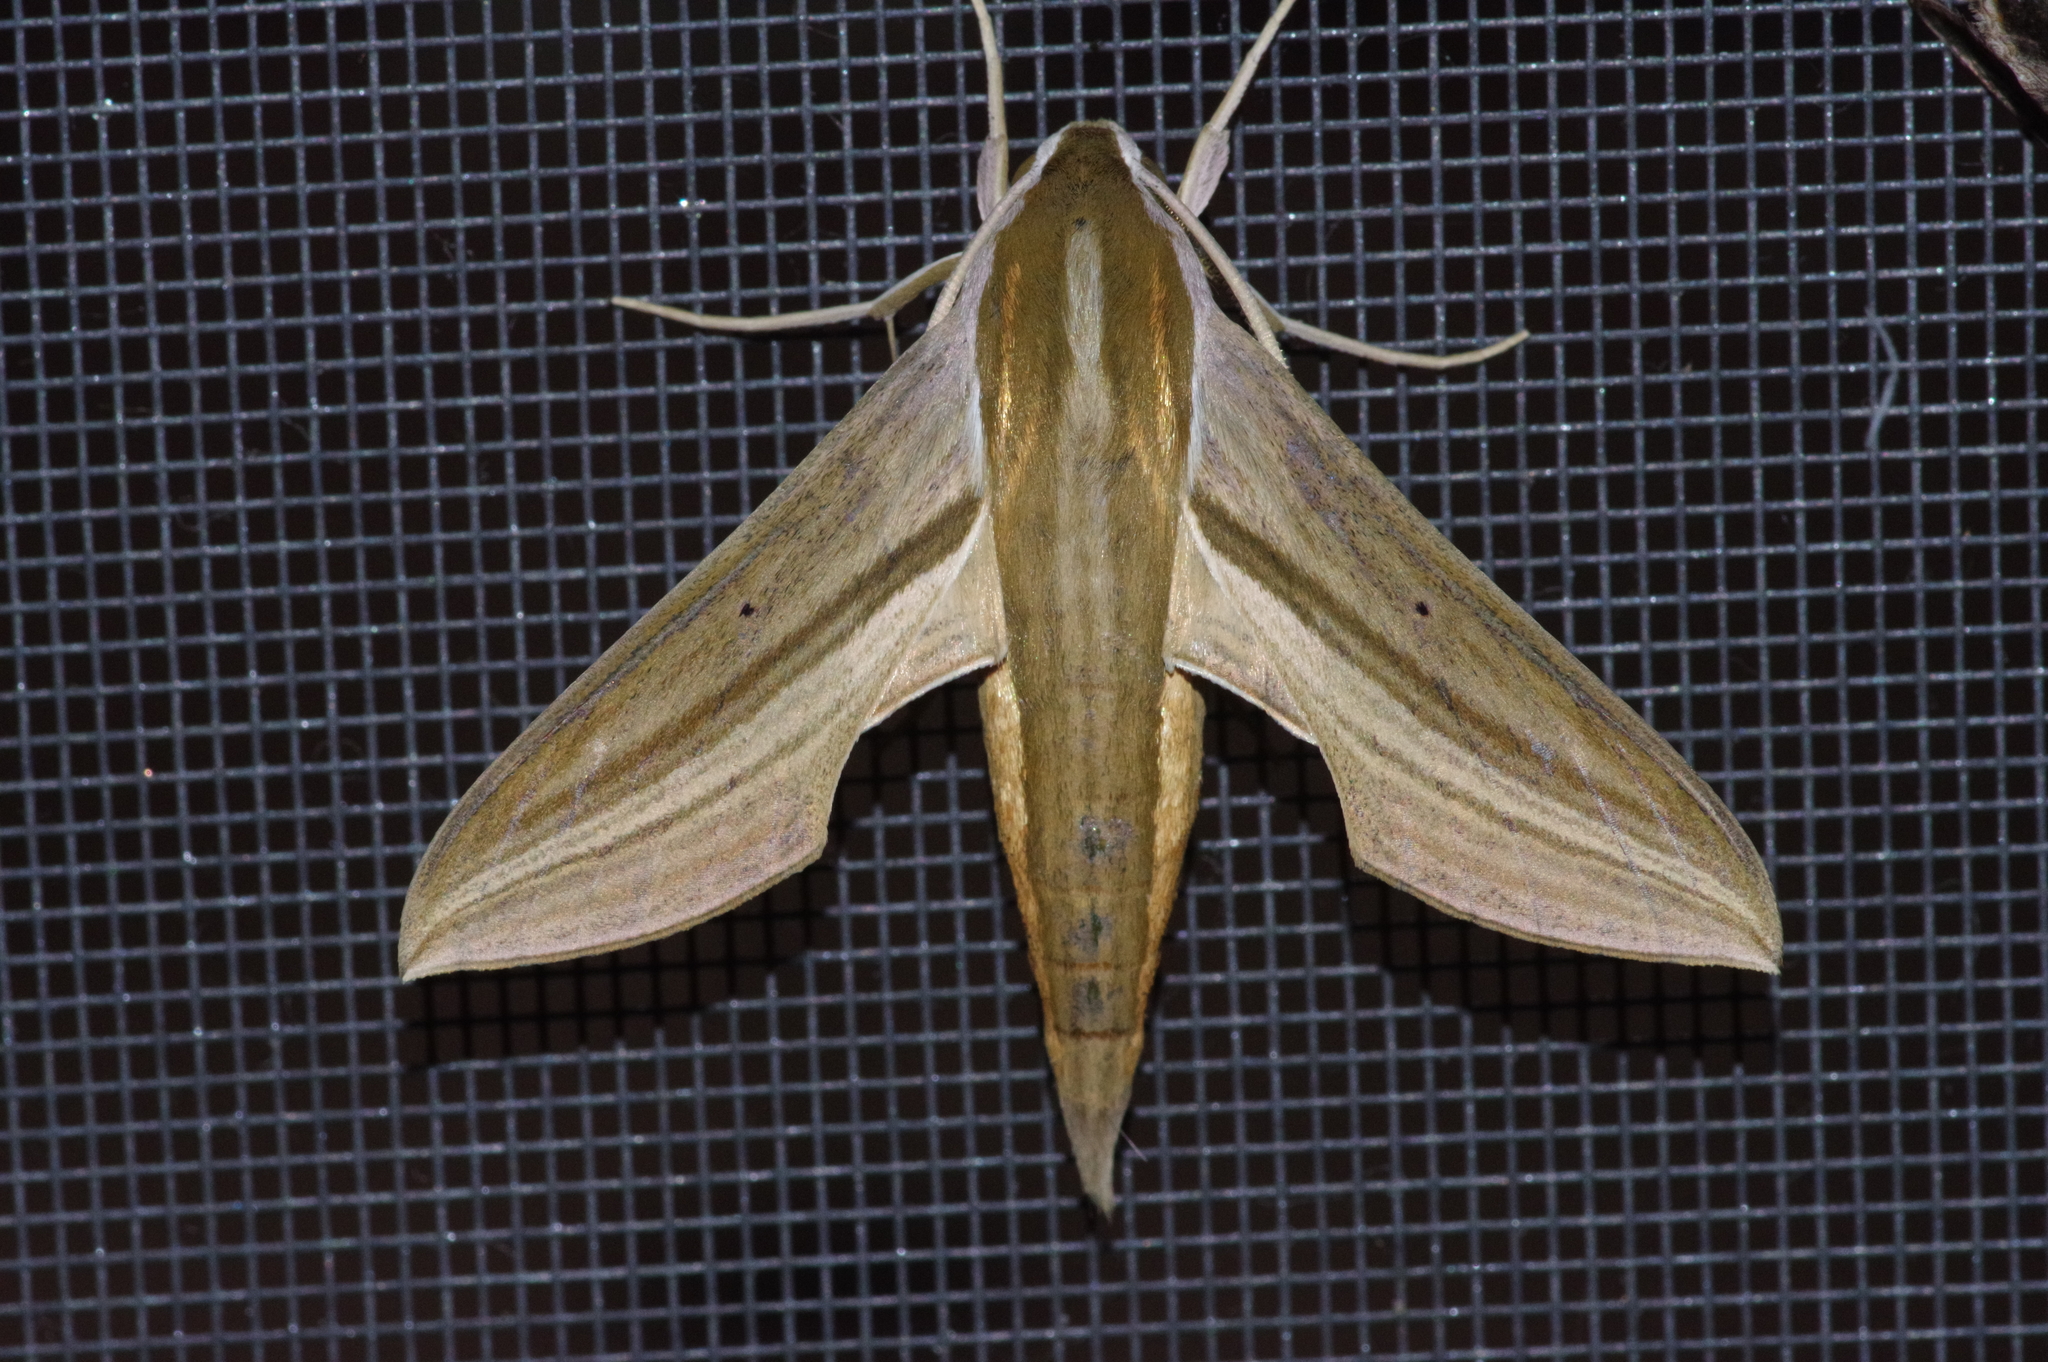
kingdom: Animalia
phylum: Arthropoda
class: Insecta
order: Lepidoptera
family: Sphingidae
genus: Theretra
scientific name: Theretra japonica
